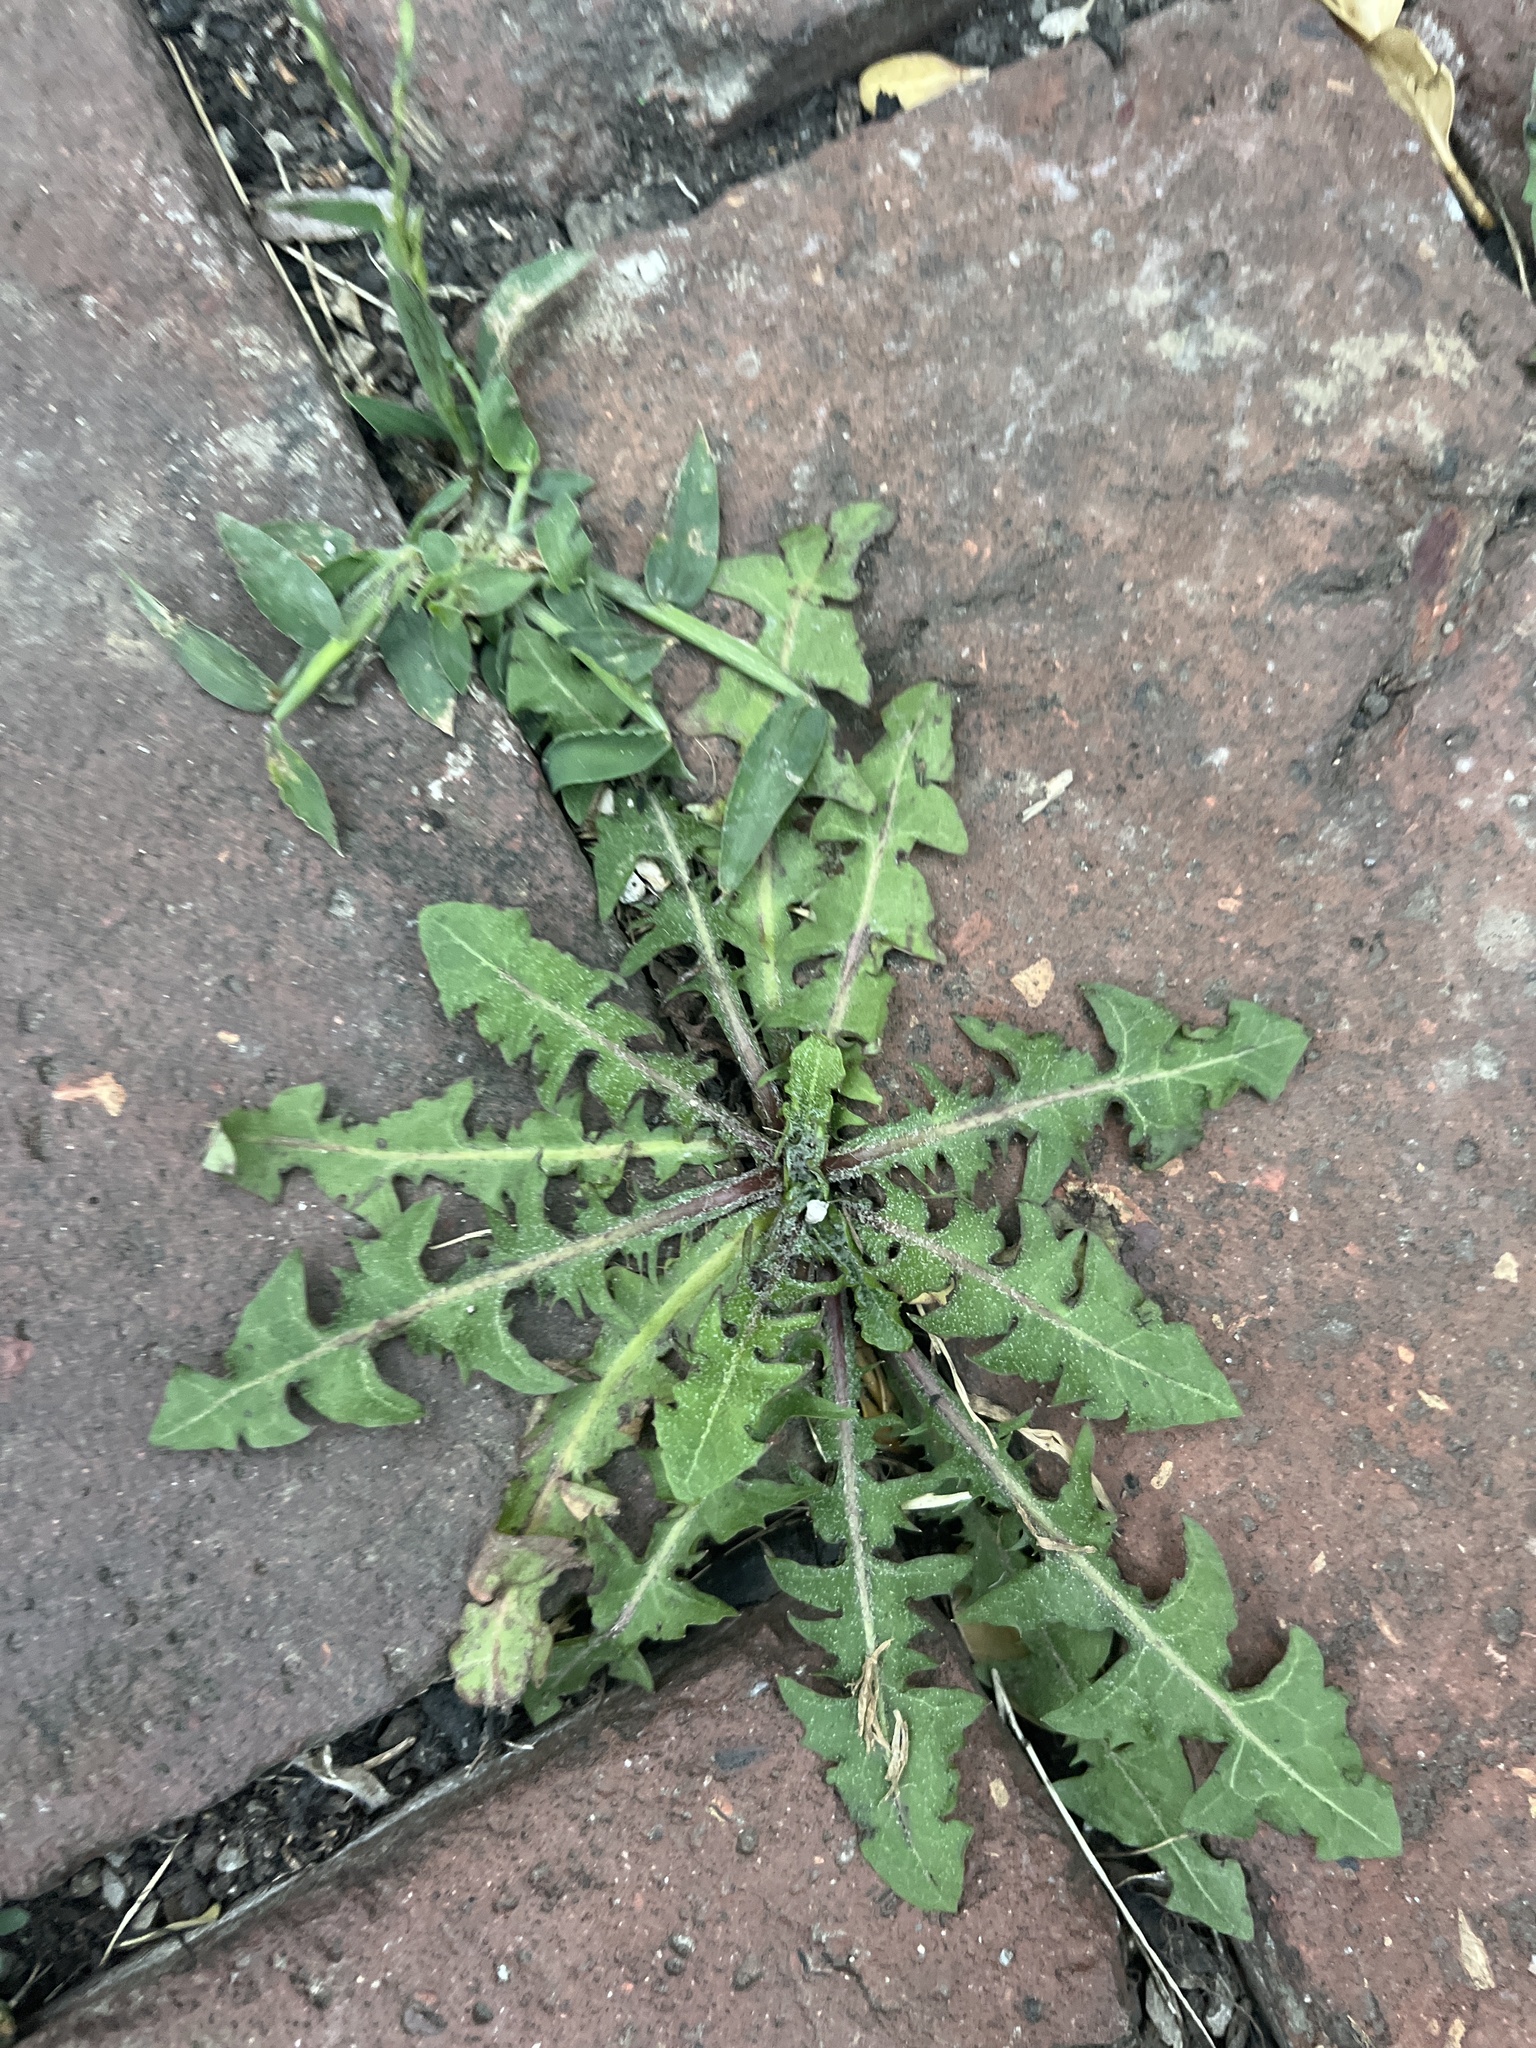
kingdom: Plantae
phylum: Tracheophyta
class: Magnoliopsida
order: Asterales
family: Asteraceae
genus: Taraxacum
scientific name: Taraxacum officinale
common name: Common dandelion
